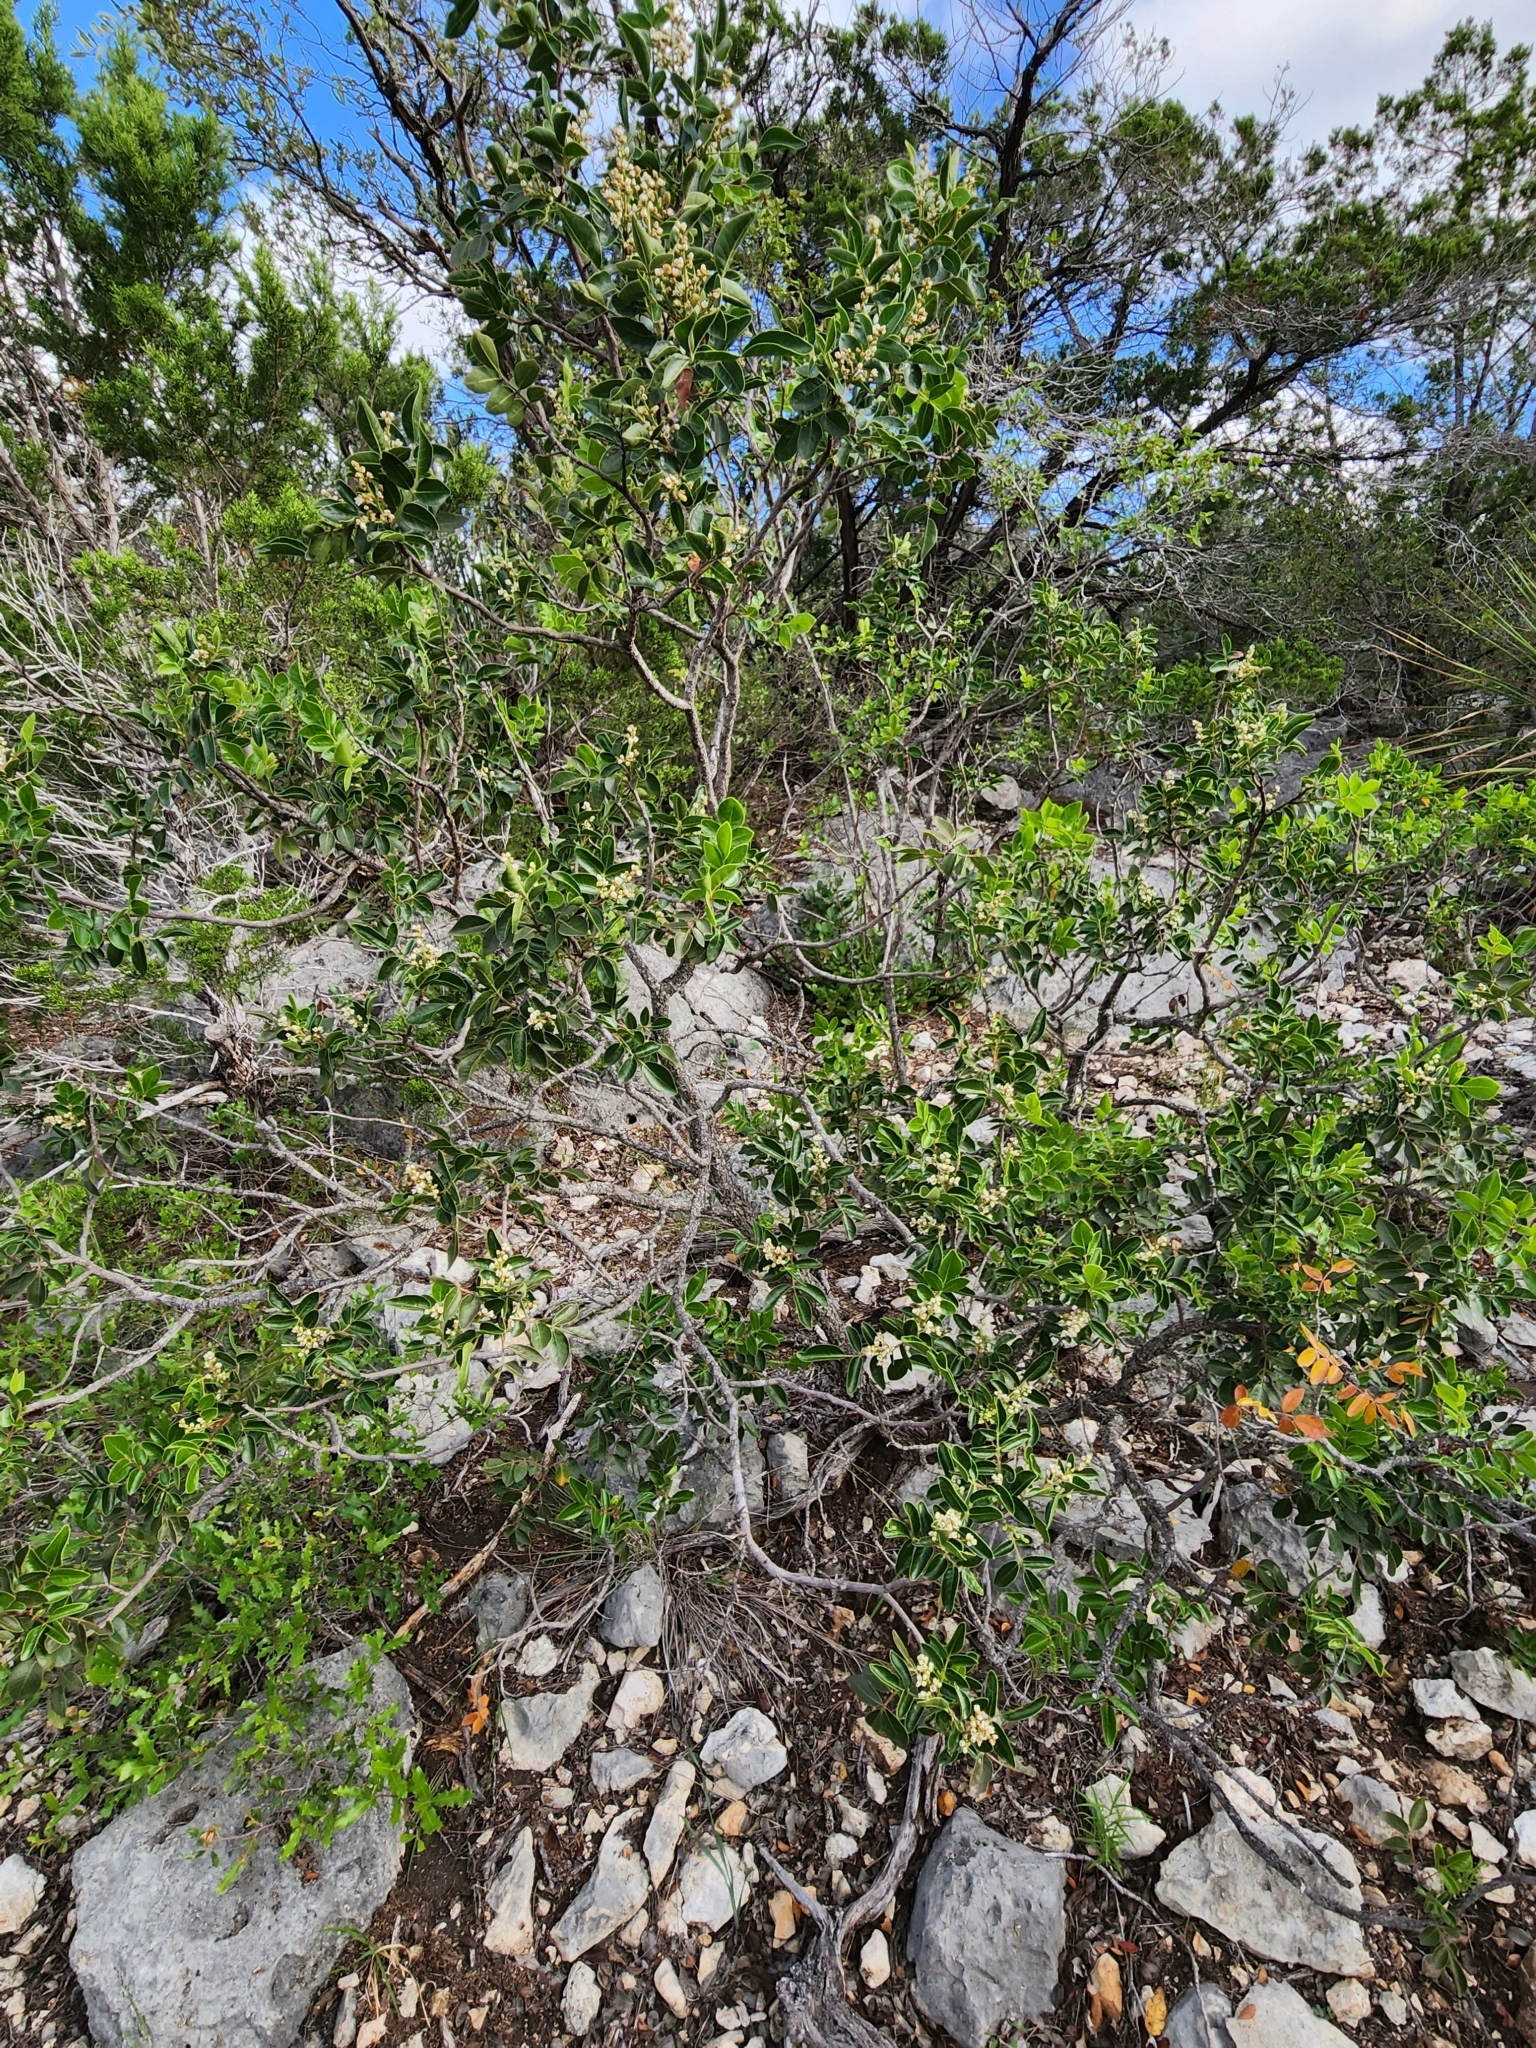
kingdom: Plantae
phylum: Tracheophyta
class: Magnoliopsida
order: Sapindales
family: Anacardiaceae
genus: Rhus
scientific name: Rhus virens
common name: Evergreen sumac
